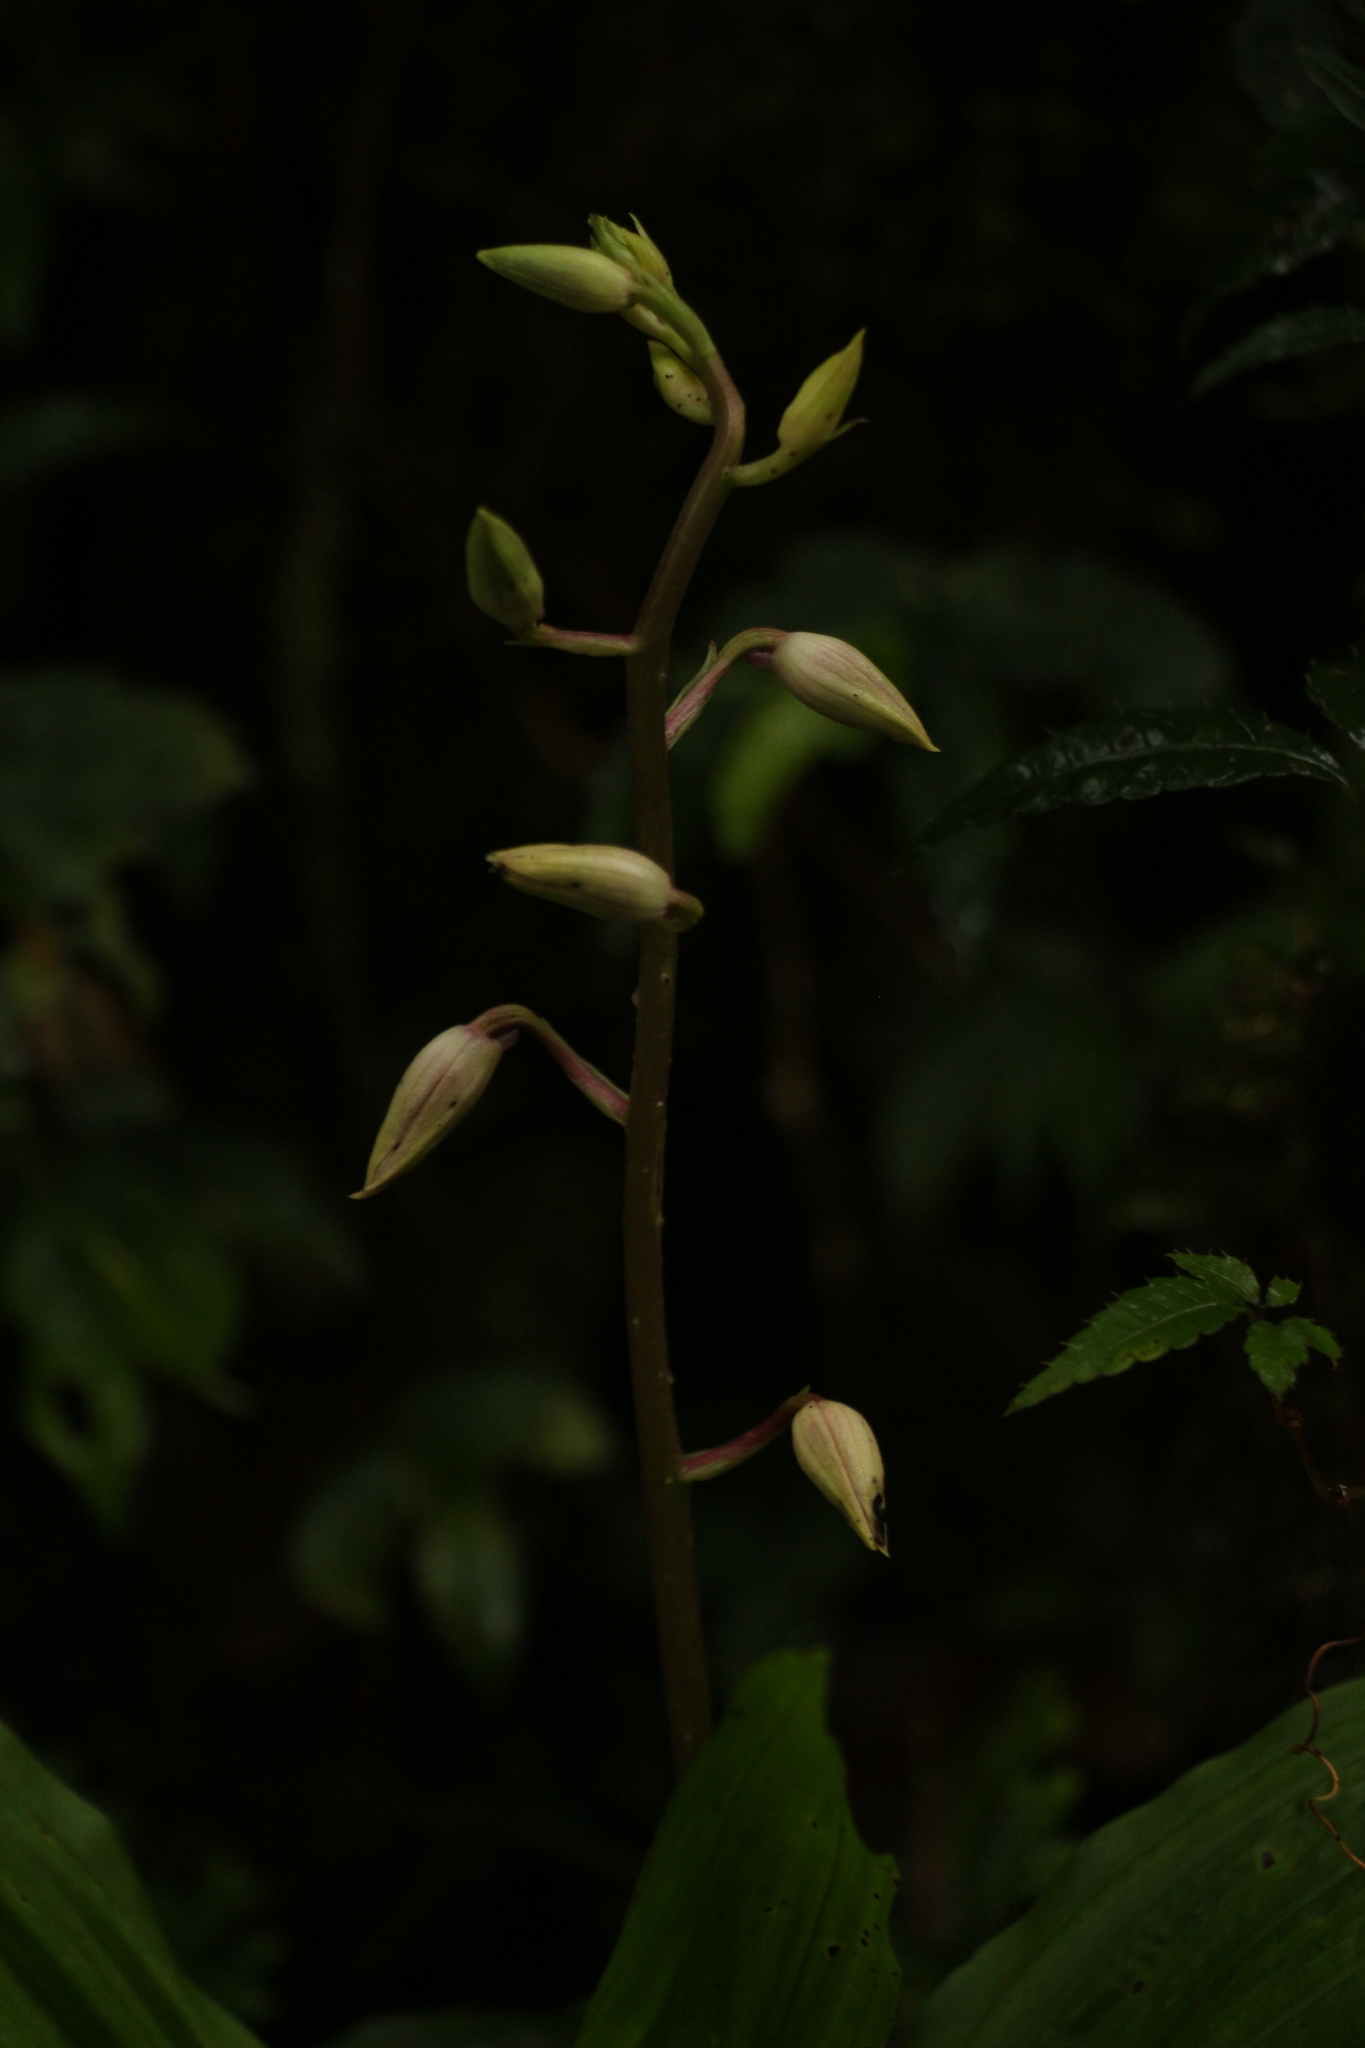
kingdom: Plantae
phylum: Tracheophyta
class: Liliopsida
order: Asparagales
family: Orchidaceae
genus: Calanthe
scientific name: Calanthe brevicornu
